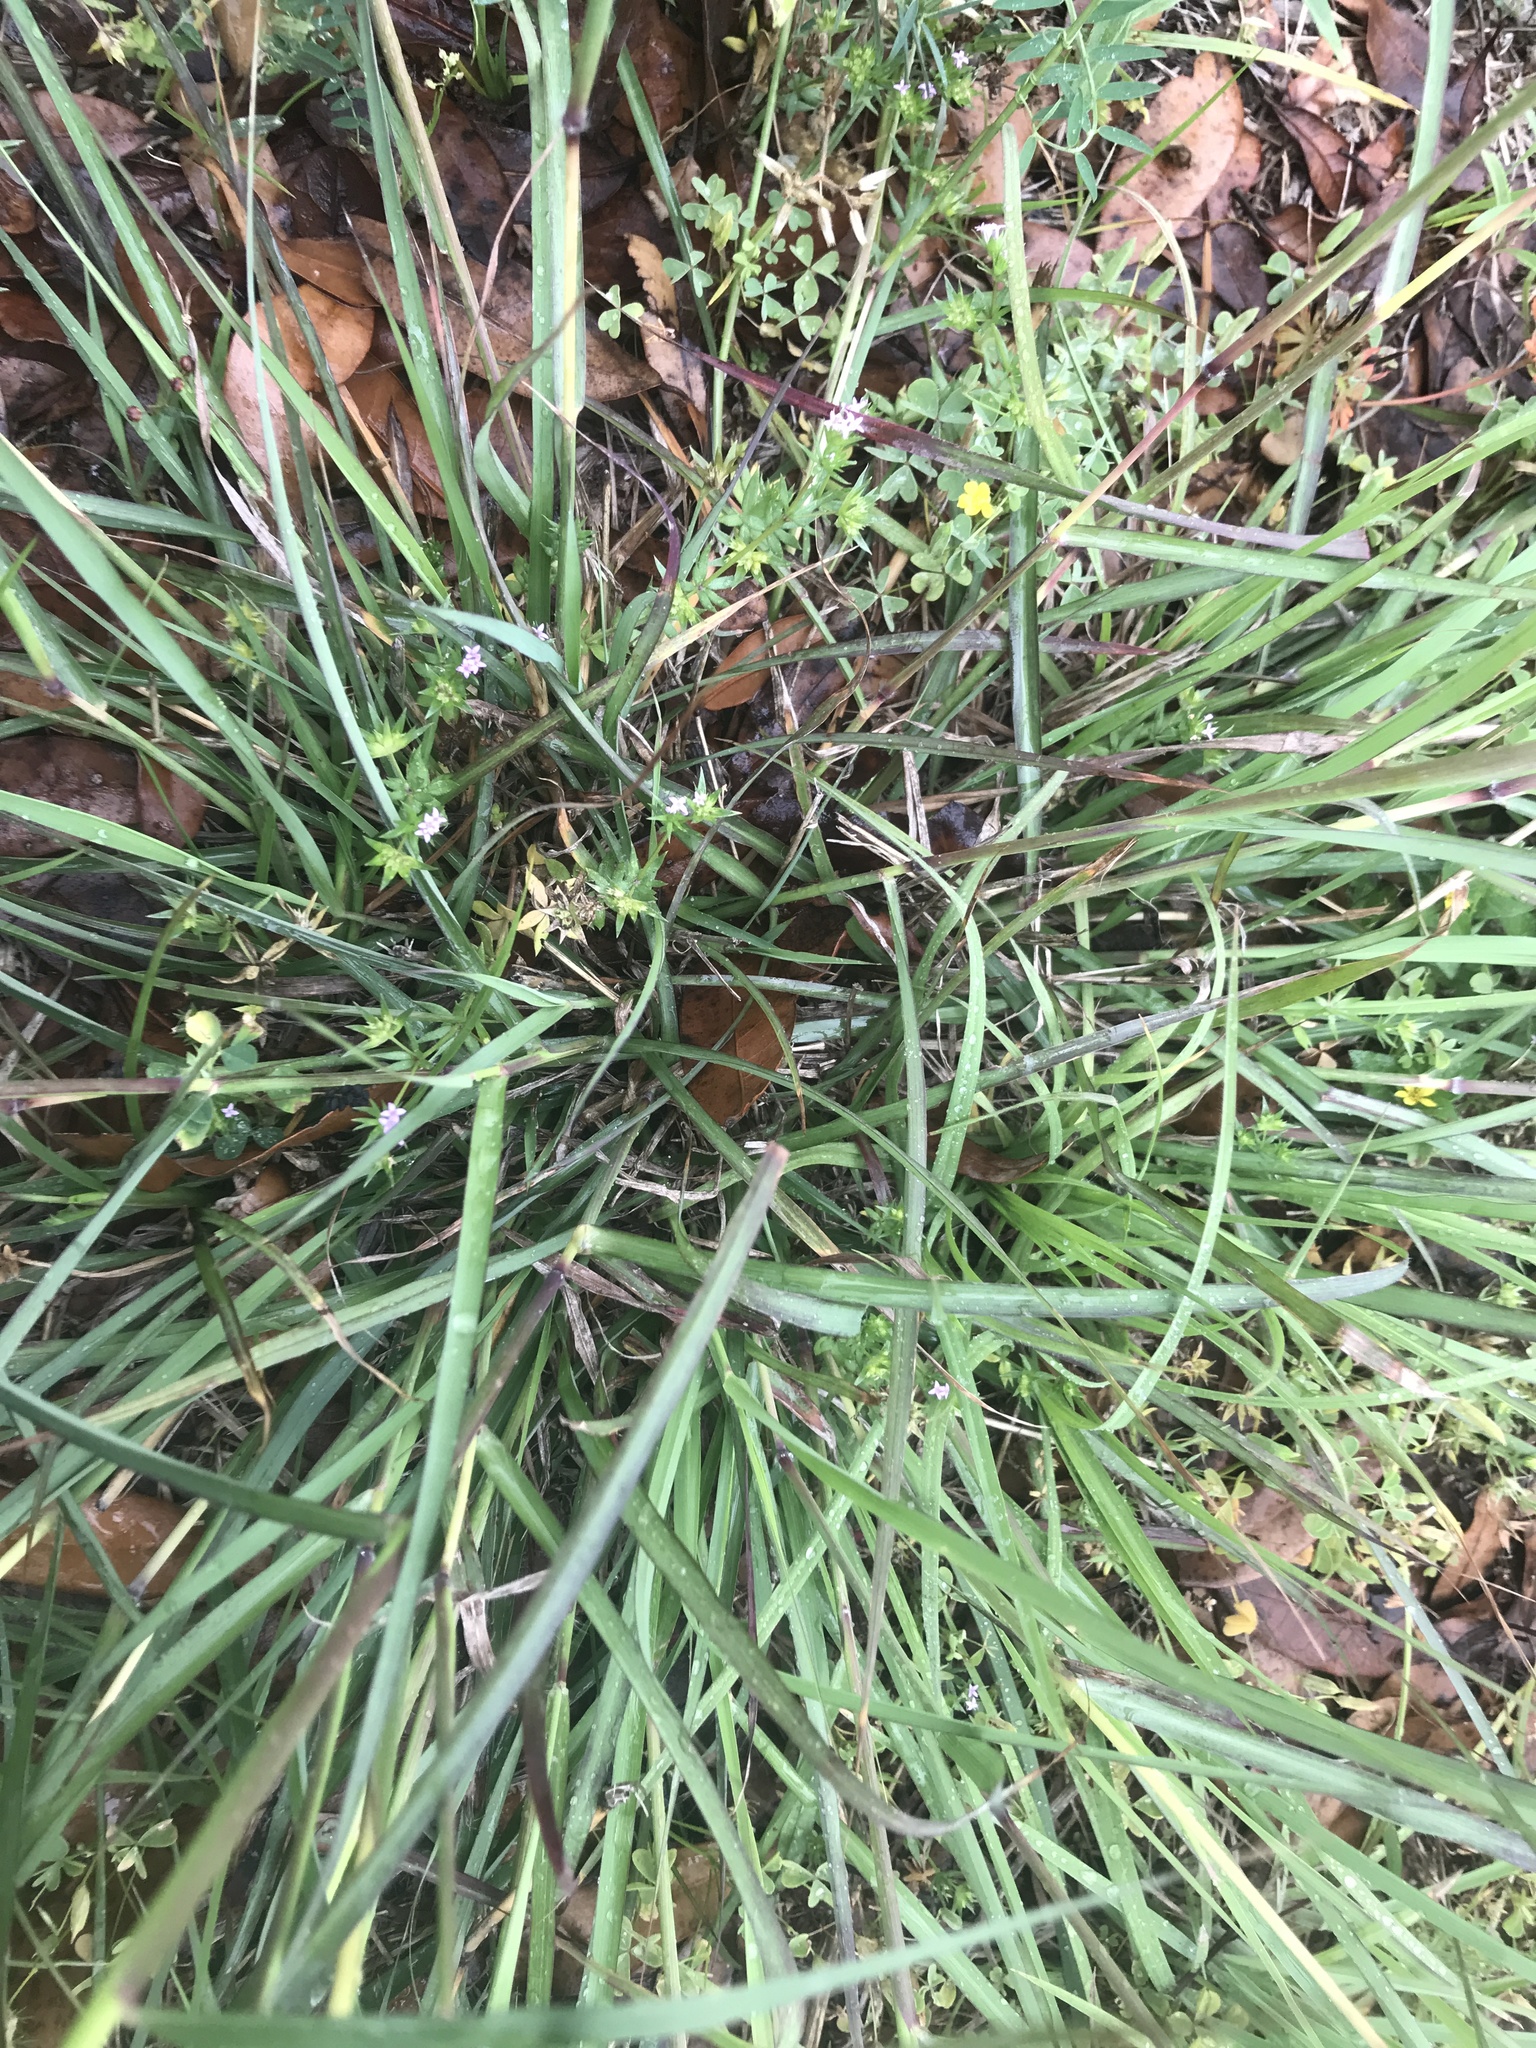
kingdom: Plantae
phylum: Tracheophyta
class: Liliopsida
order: Poales
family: Poaceae
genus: Bothriochloa
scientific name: Bothriochloa bladhii
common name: Caucasian bluestem
